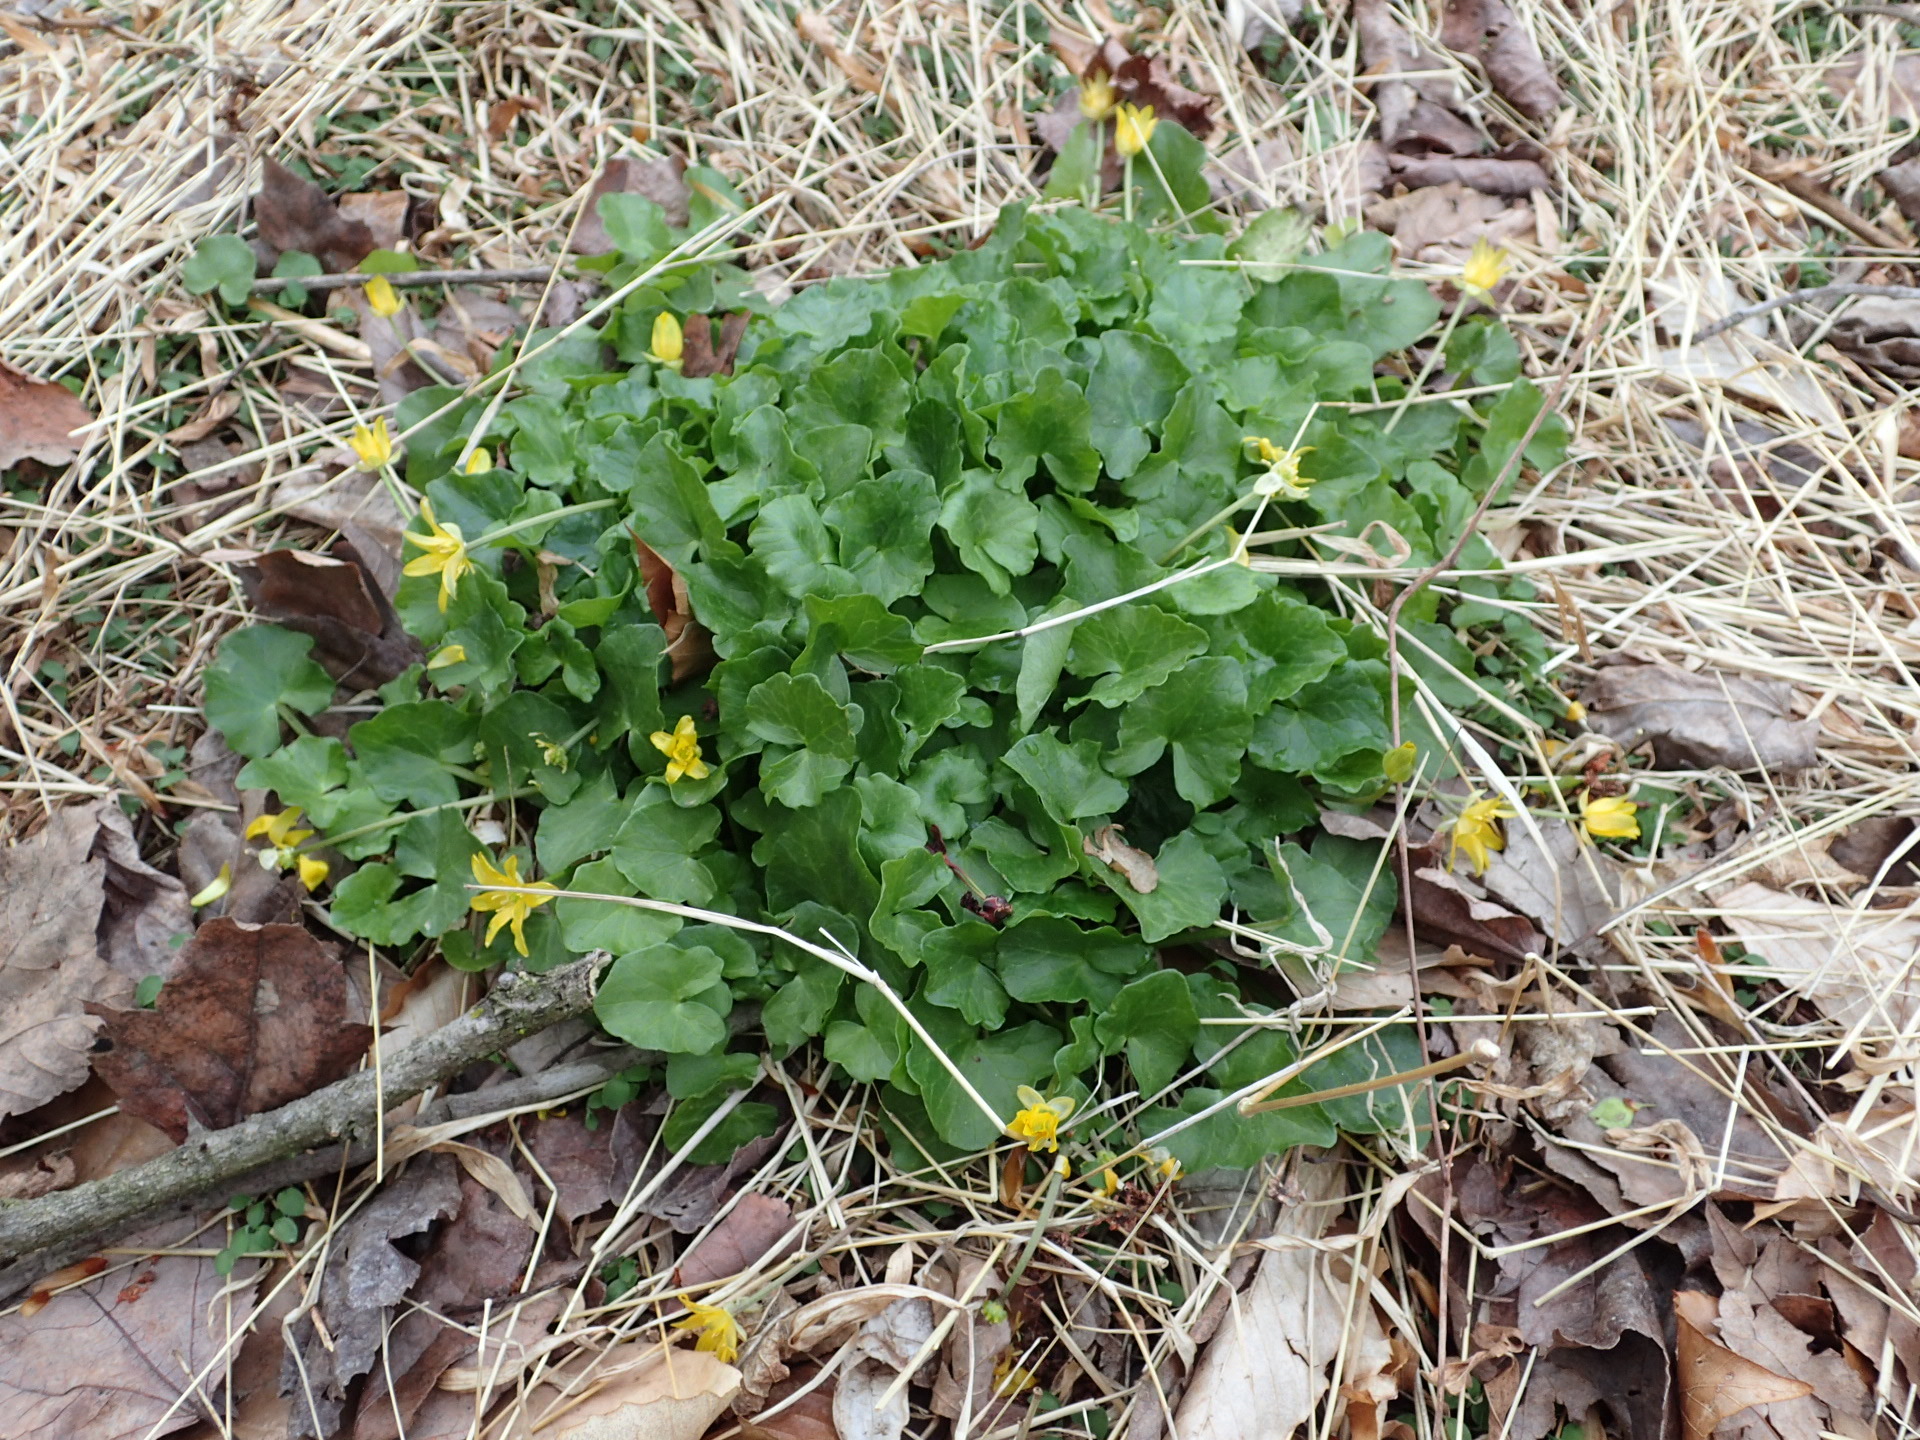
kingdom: Plantae
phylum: Tracheophyta
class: Magnoliopsida
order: Ranunculales
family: Ranunculaceae
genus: Ficaria
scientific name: Ficaria verna
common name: Lesser celandine
